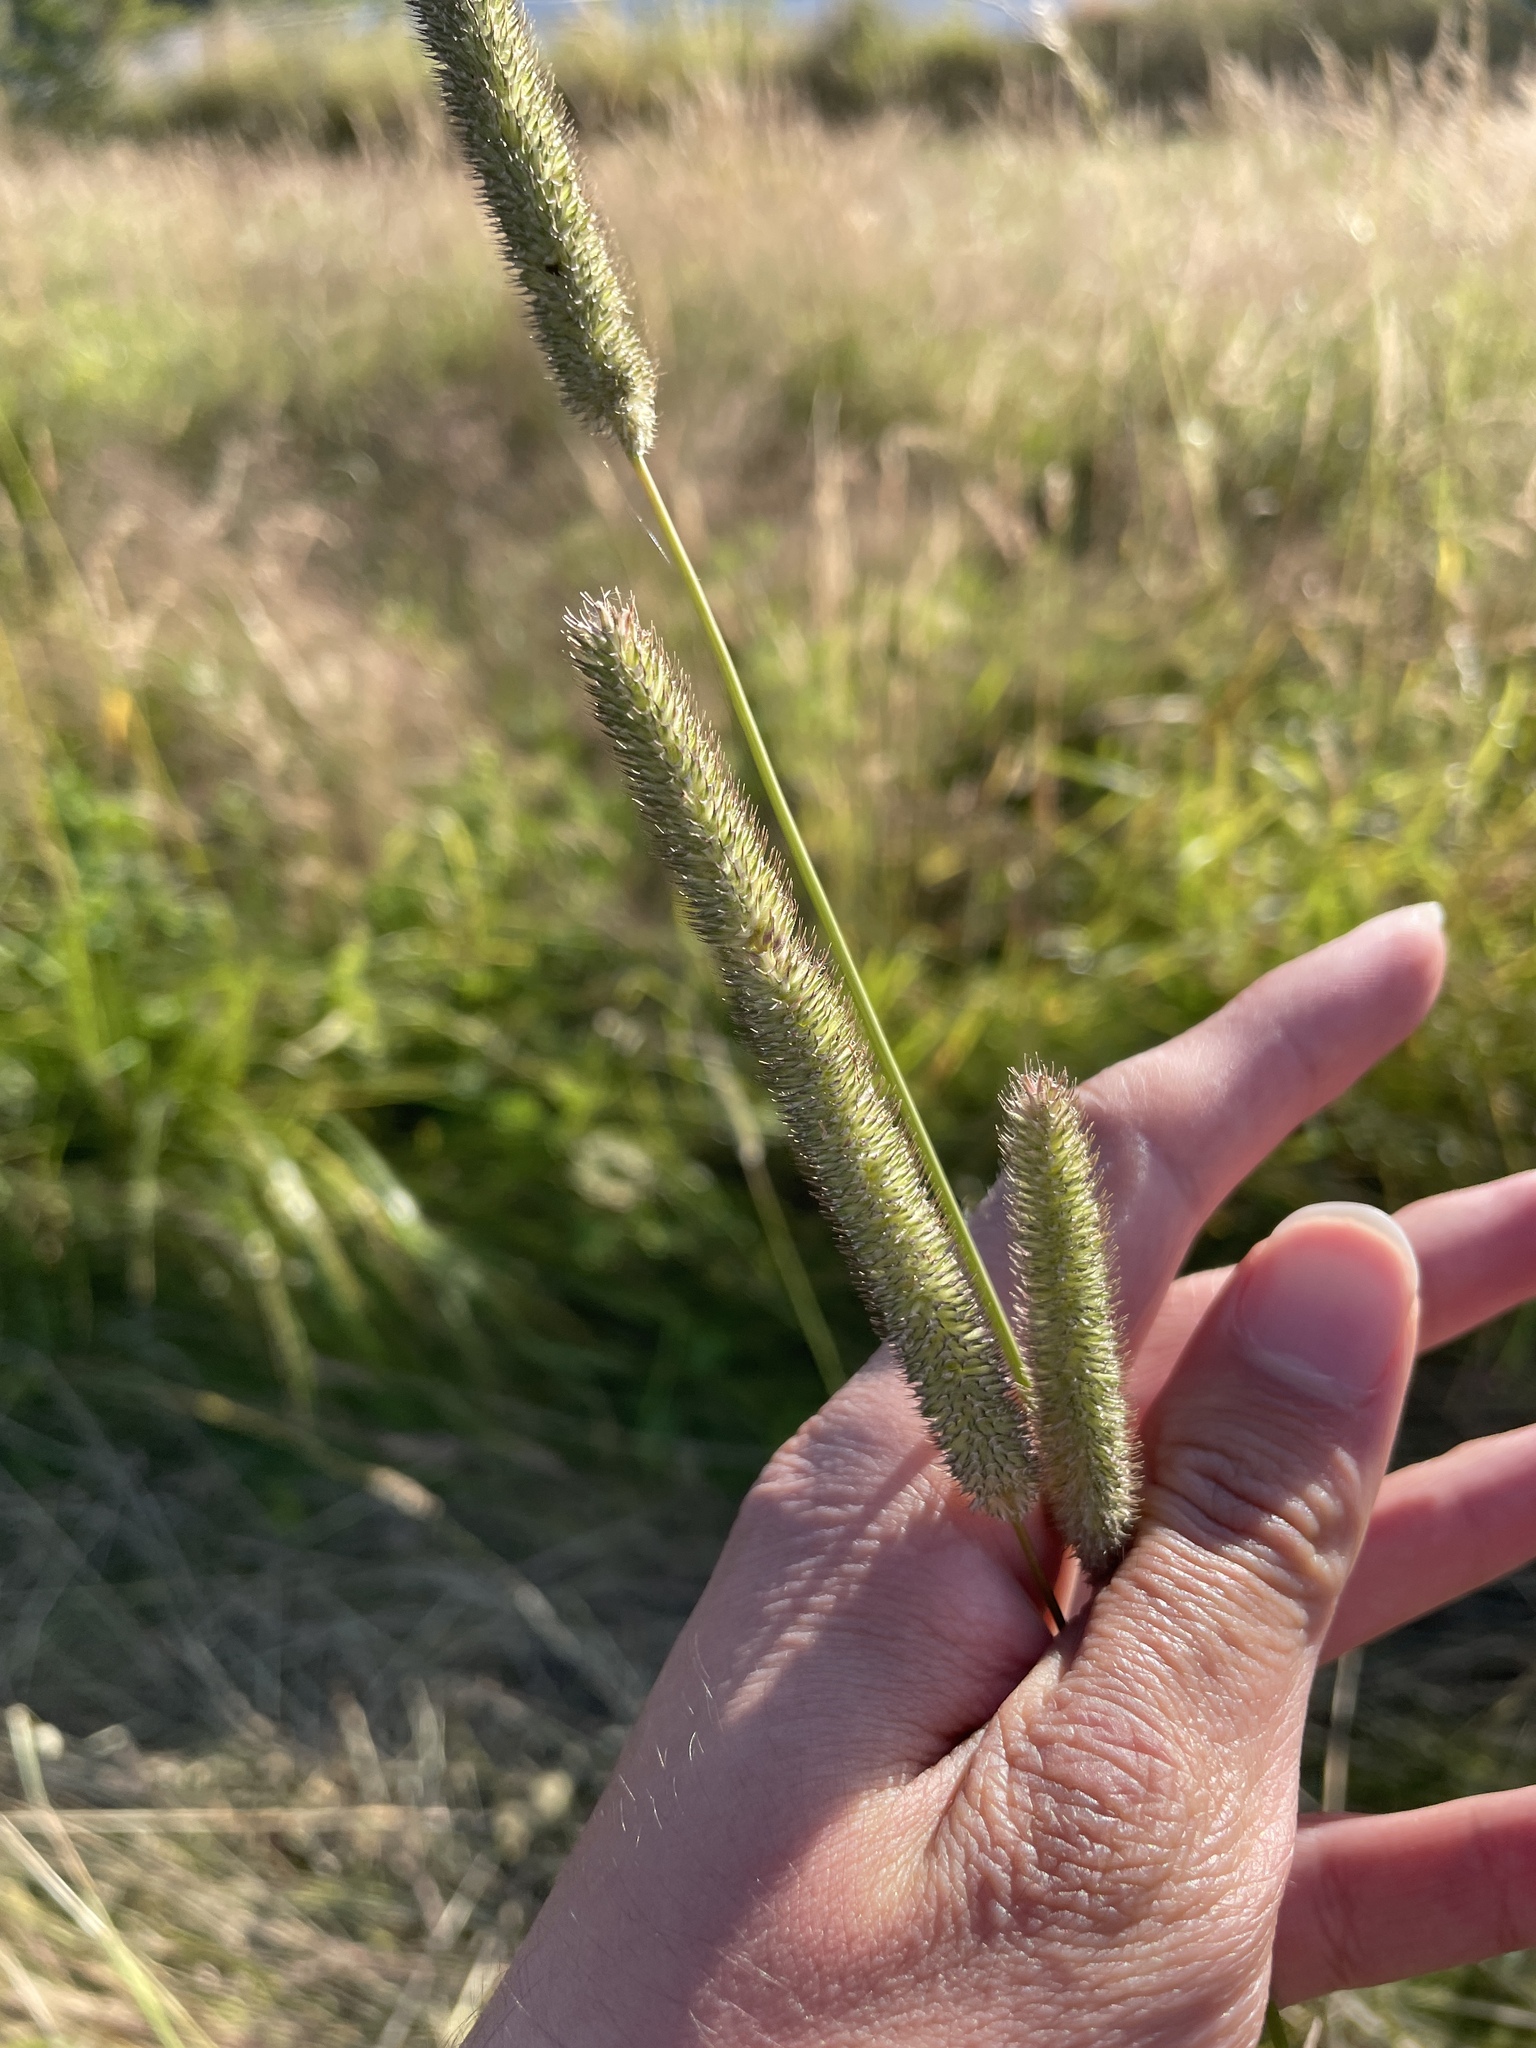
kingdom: Plantae
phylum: Tracheophyta
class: Liliopsida
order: Poales
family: Poaceae
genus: Phleum
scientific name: Phleum pratense
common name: Timothy grass
